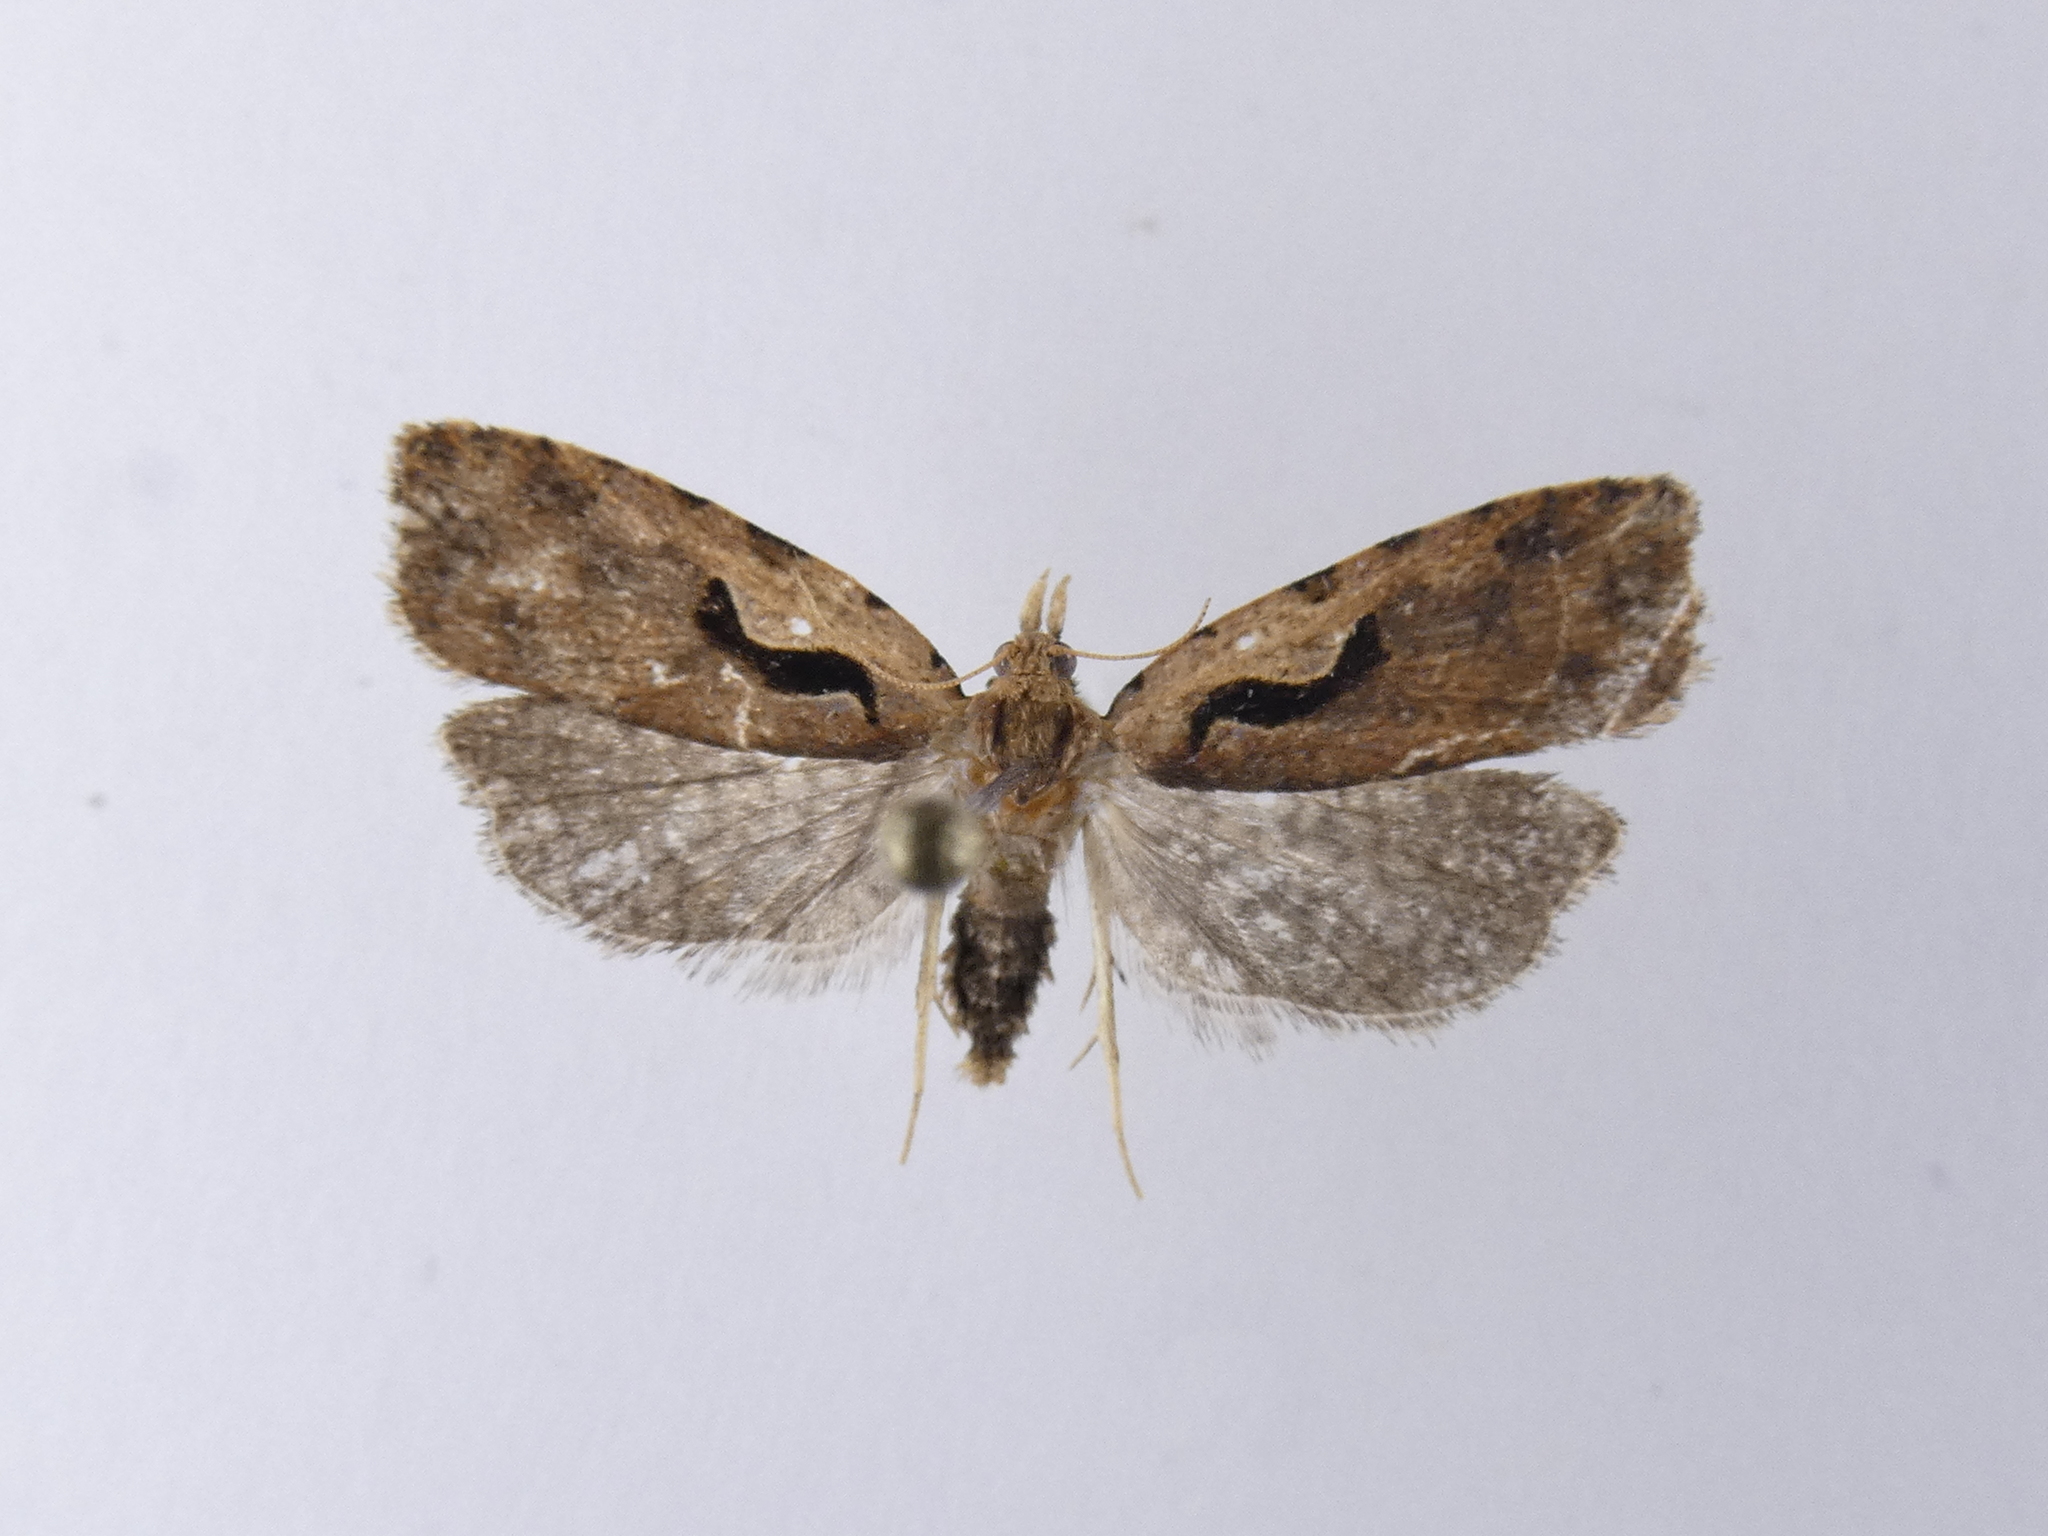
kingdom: Animalia
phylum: Arthropoda
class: Insecta
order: Lepidoptera
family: Tortricidae
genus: Cnephasia
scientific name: Cnephasia jactatana
